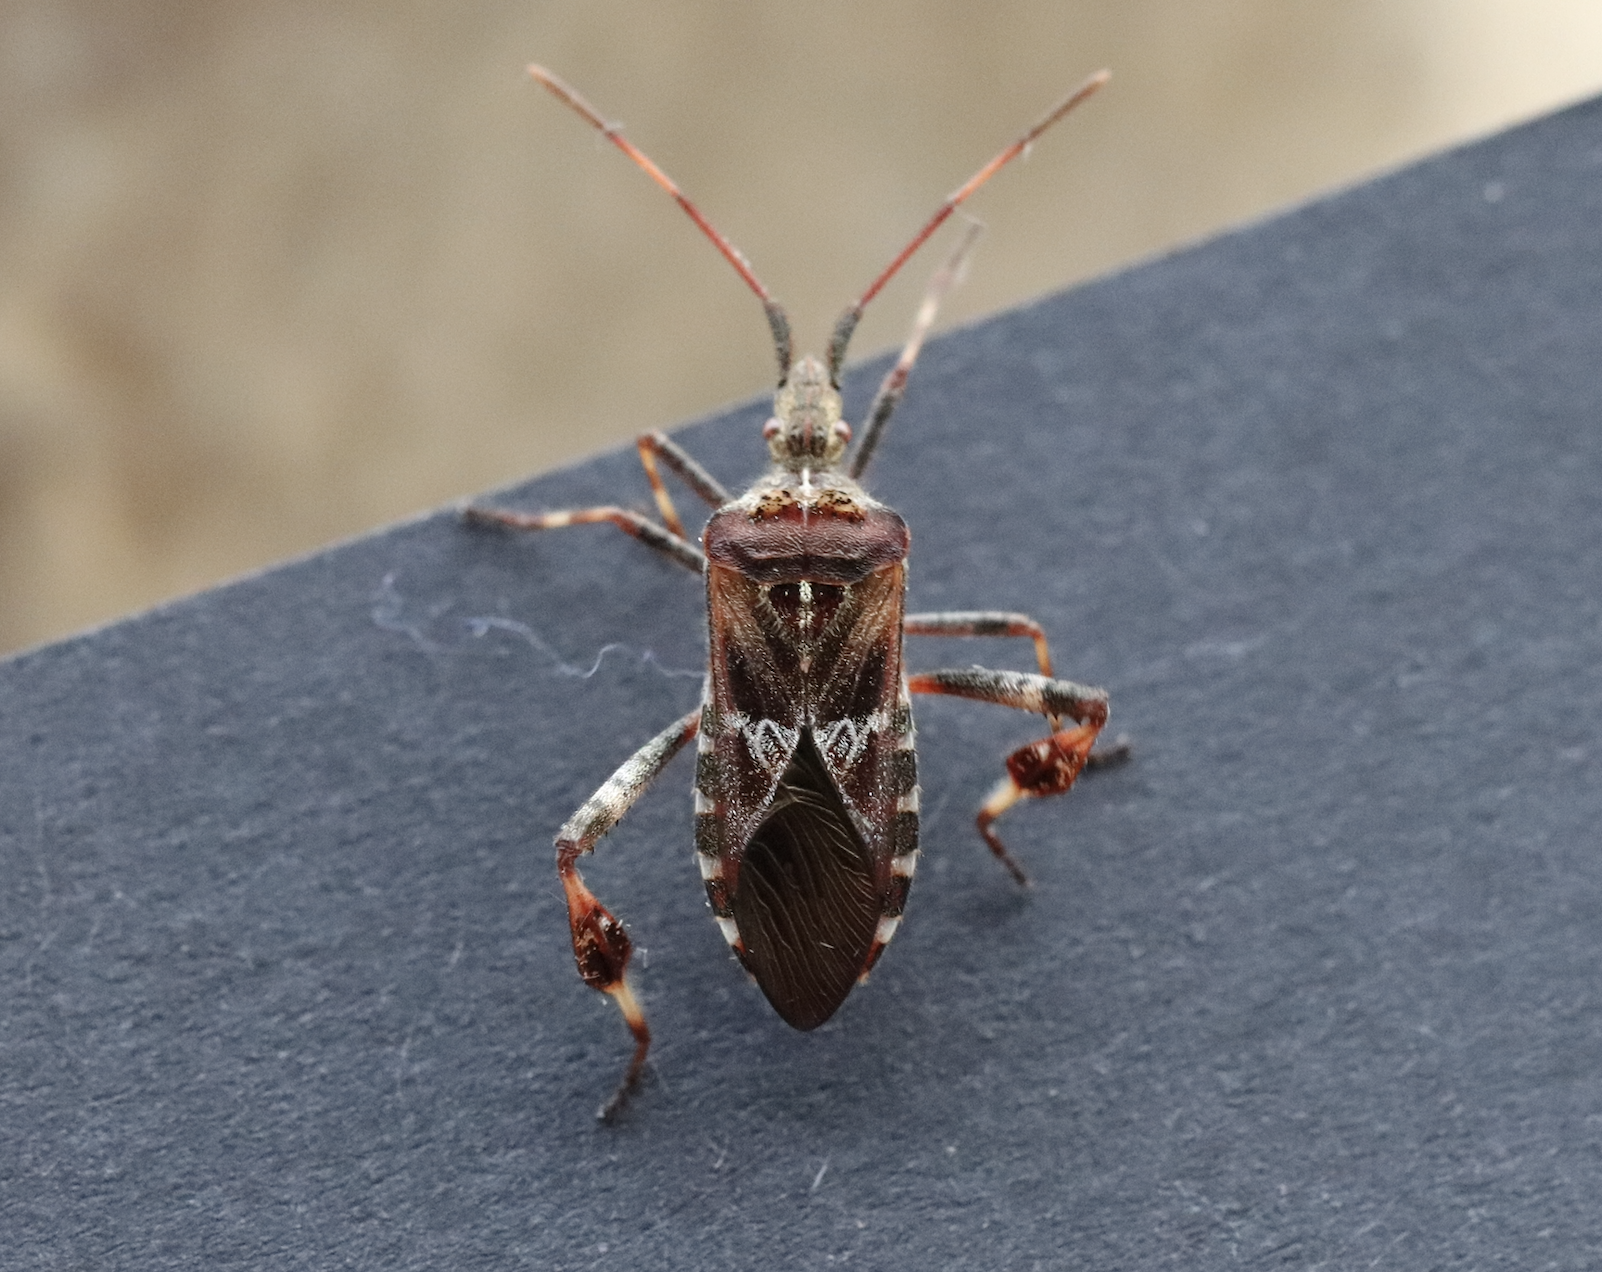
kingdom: Animalia
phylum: Arthropoda
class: Insecta
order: Hemiptera
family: Coreidae
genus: Leptoglossus
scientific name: Leptoglossus occidentalis
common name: Western conifer-seed bug
